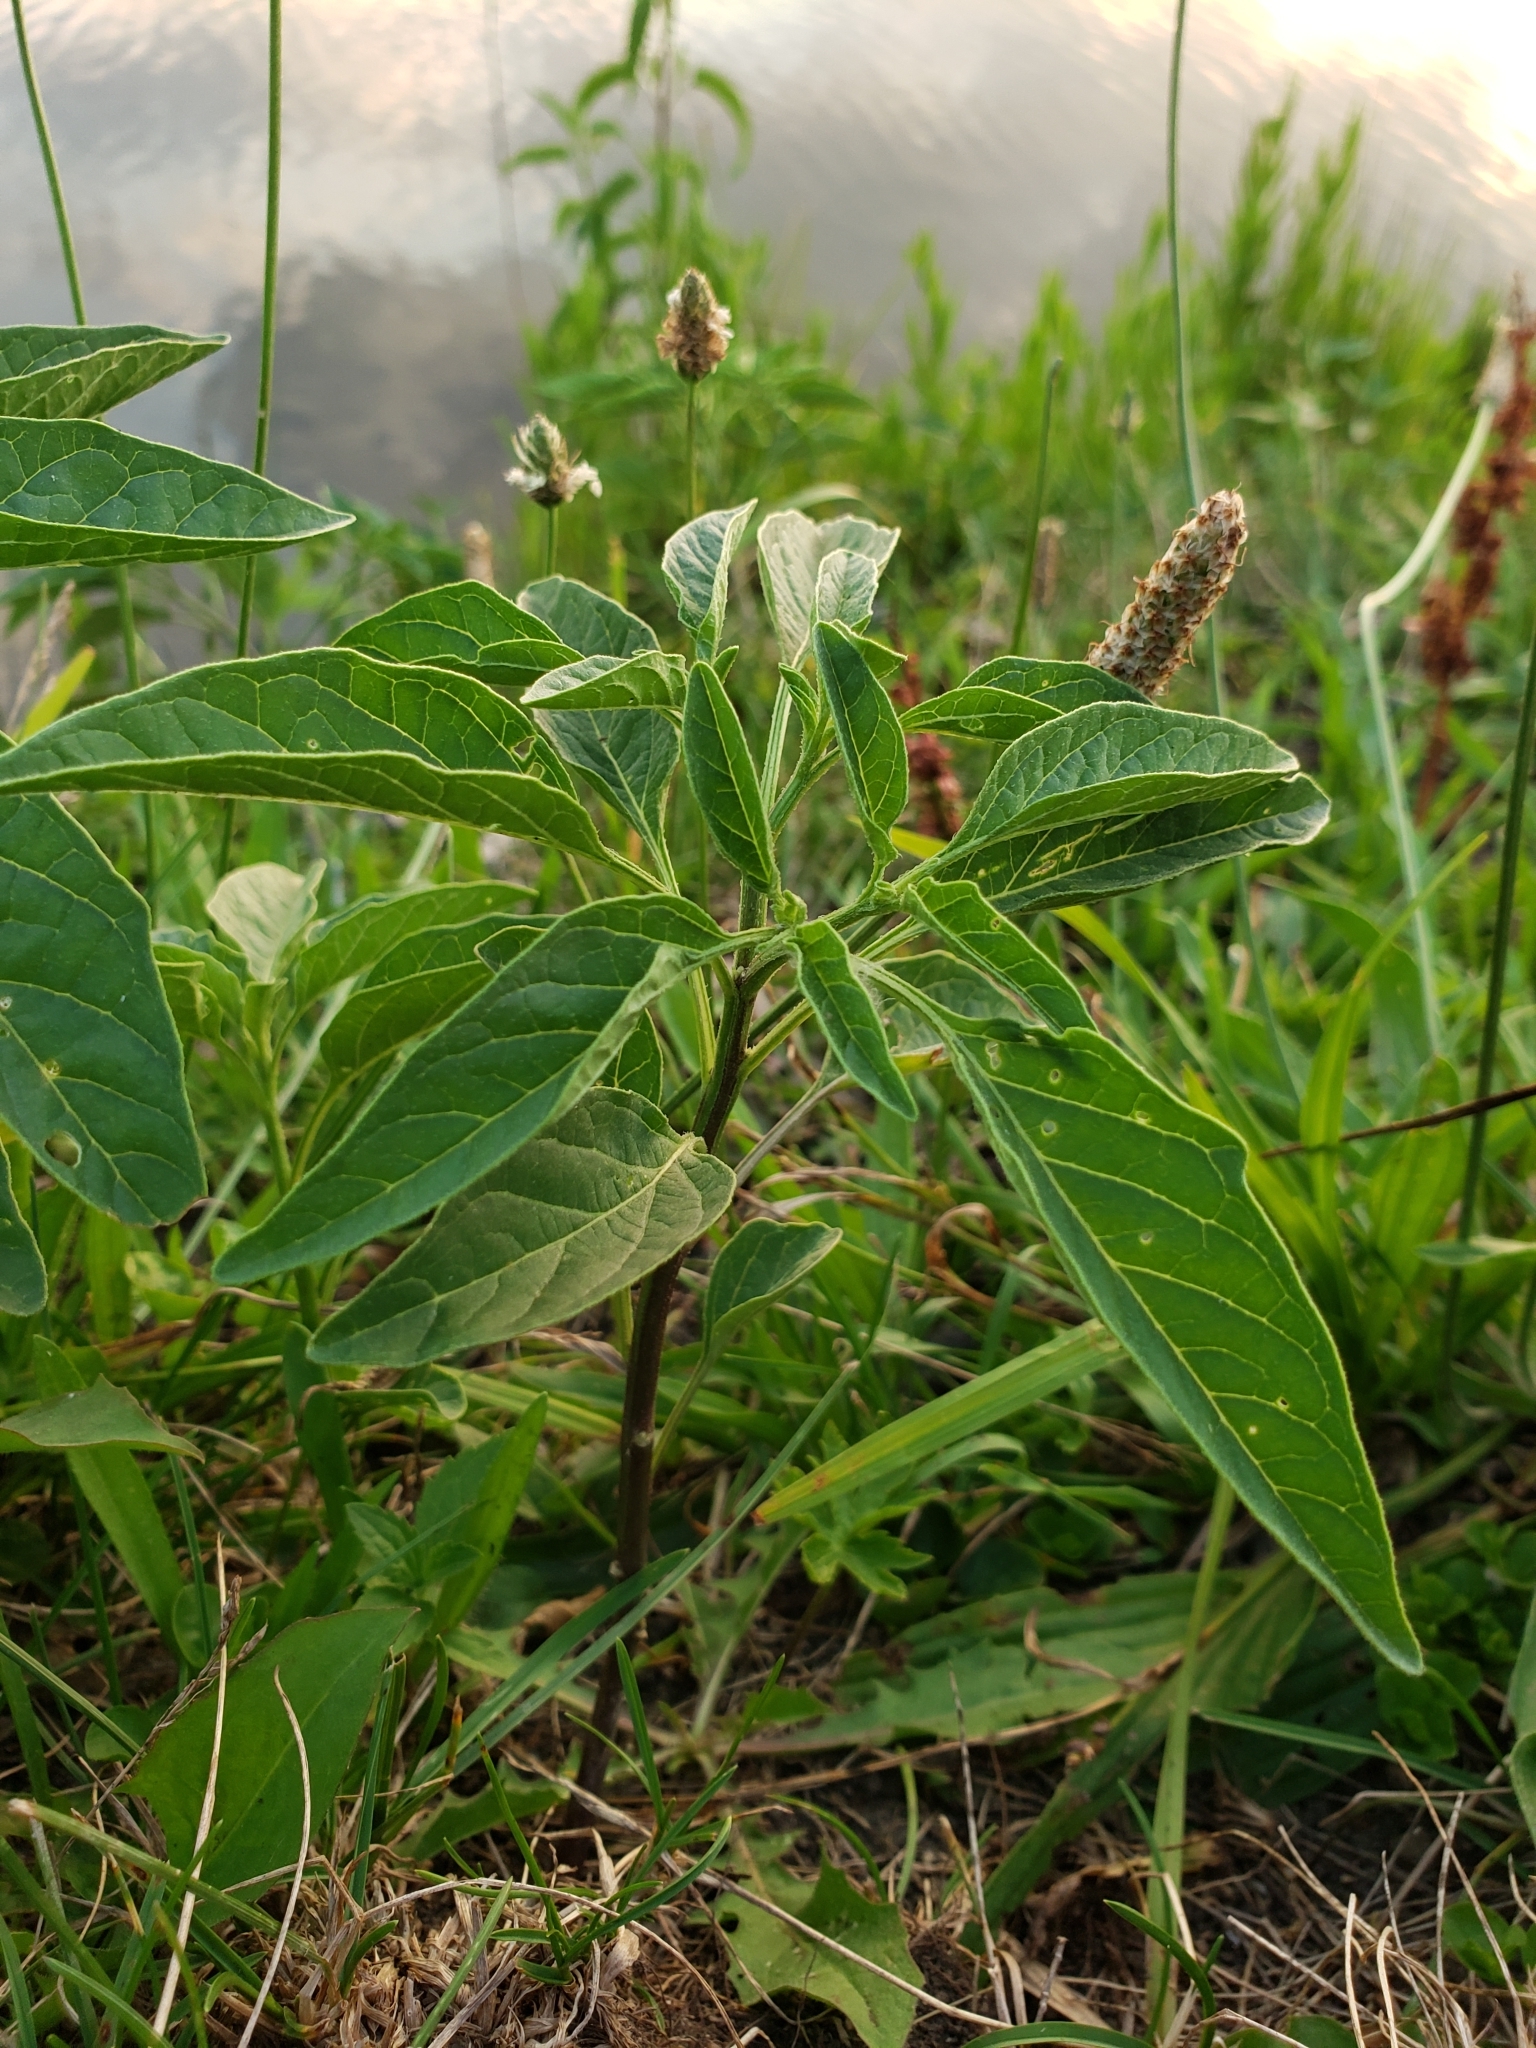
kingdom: Plantae
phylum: Tracheophyta
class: Magnoliopsida
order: Solanales
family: Solanaceae
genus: Physalis
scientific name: Physalis longifolia
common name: Common ground-cherry
